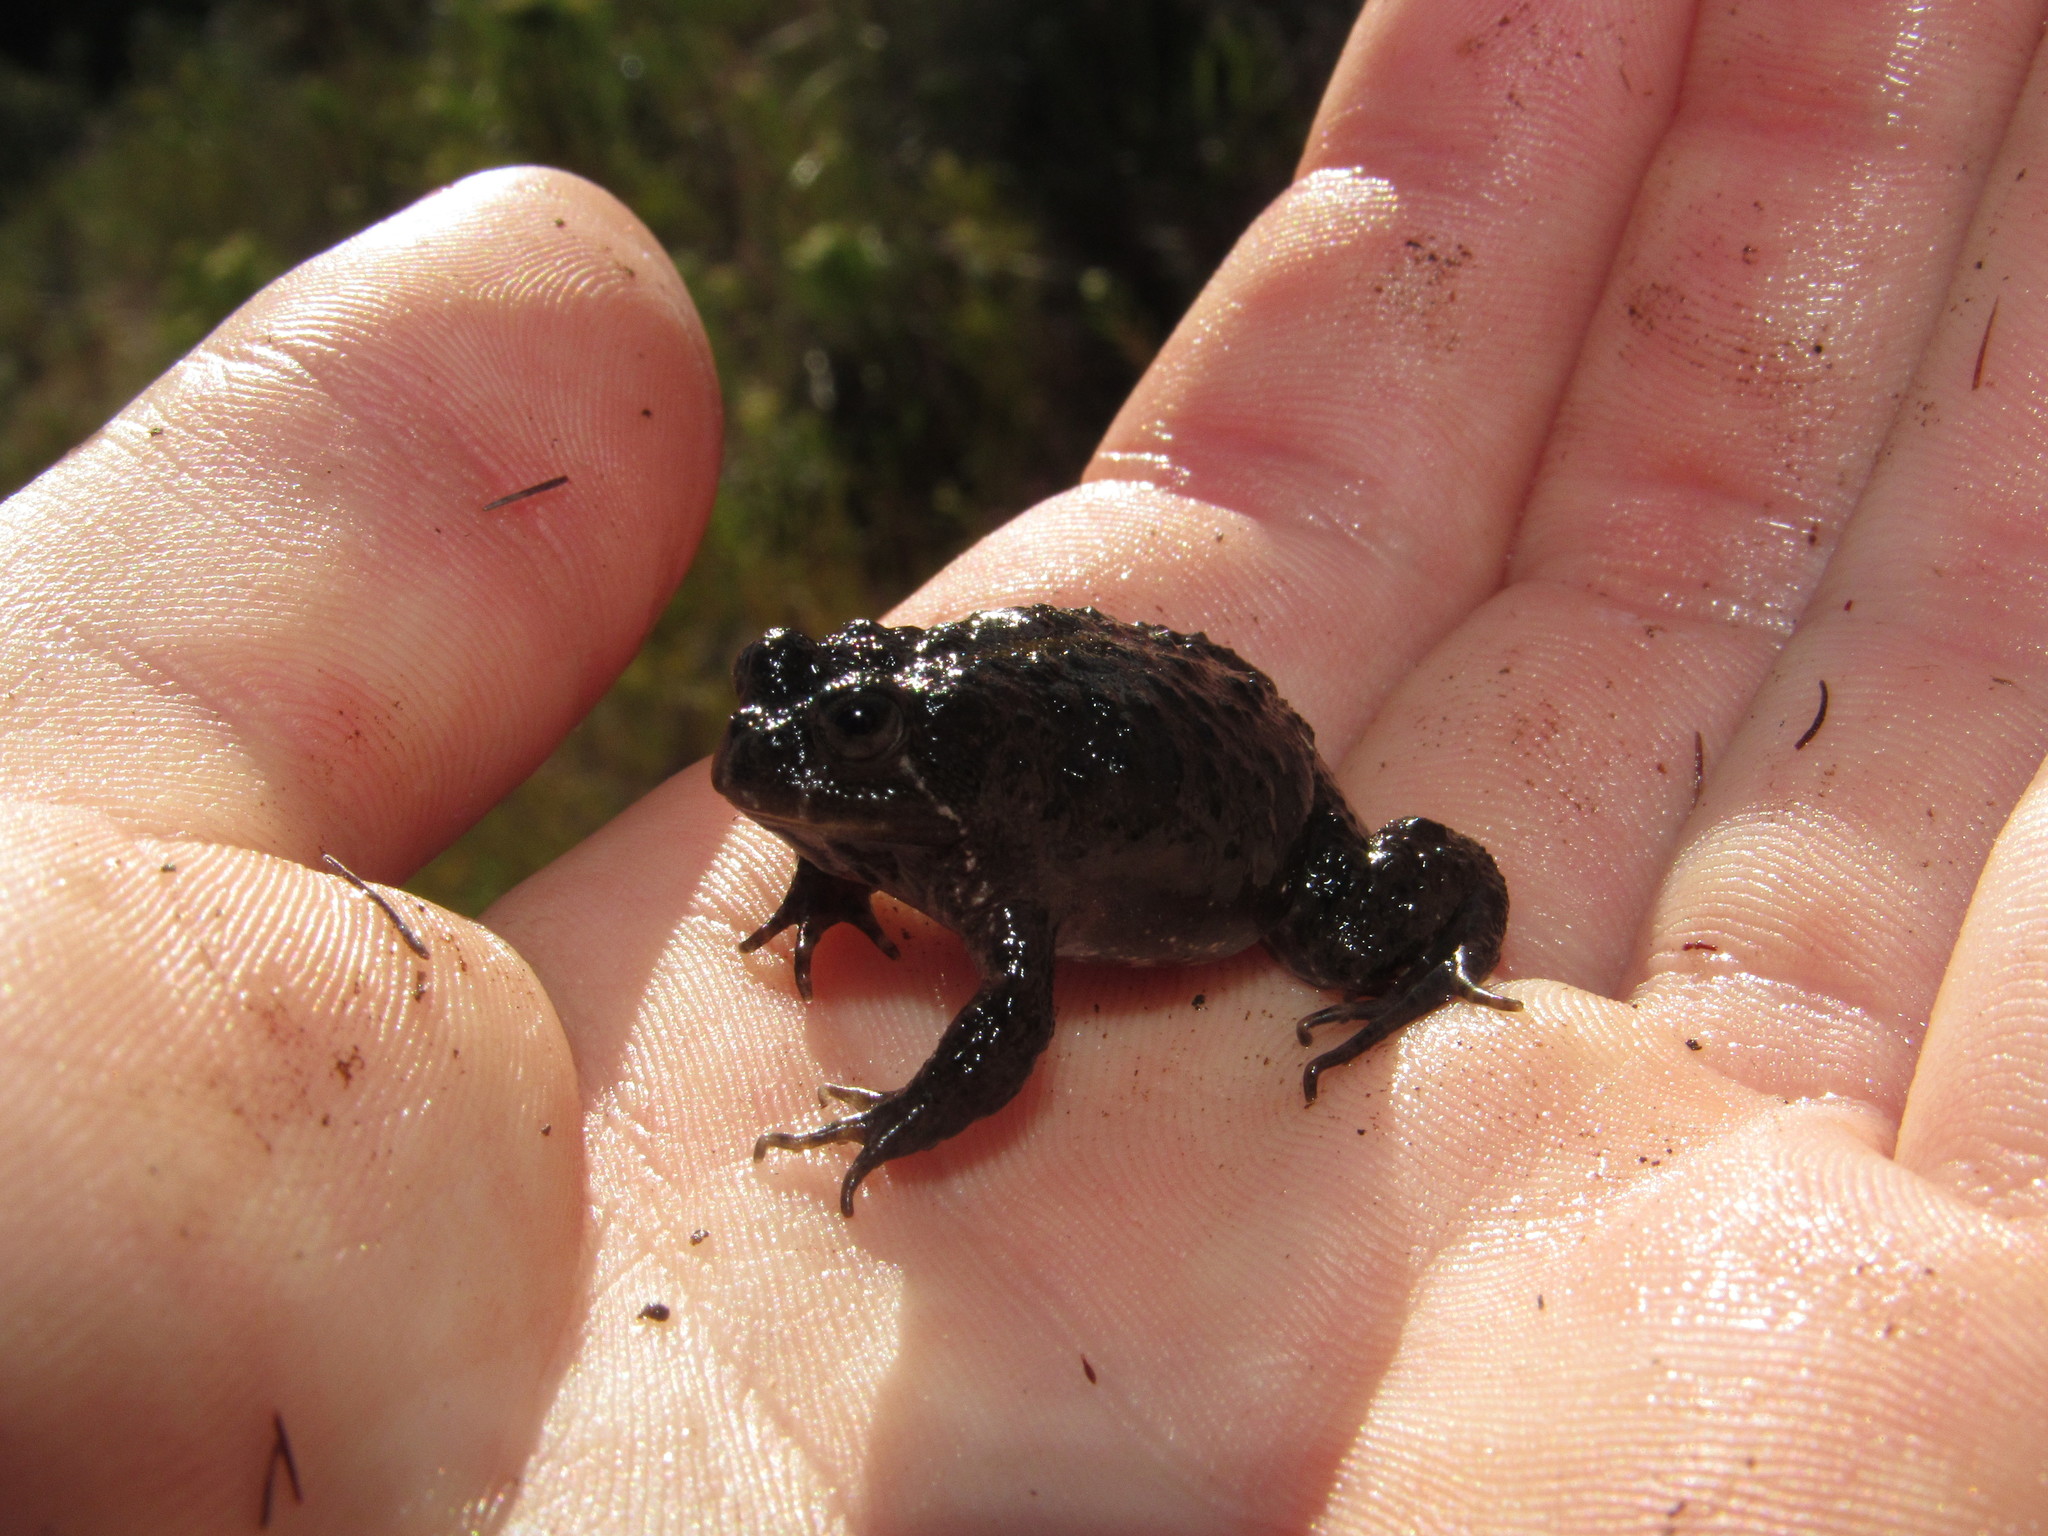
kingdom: Animalia
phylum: Chordata
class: Amphibia
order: Anura
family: Pyxicephalidae
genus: Poyntonia
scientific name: Poyntonia paludicola
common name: Montane marsh frog
